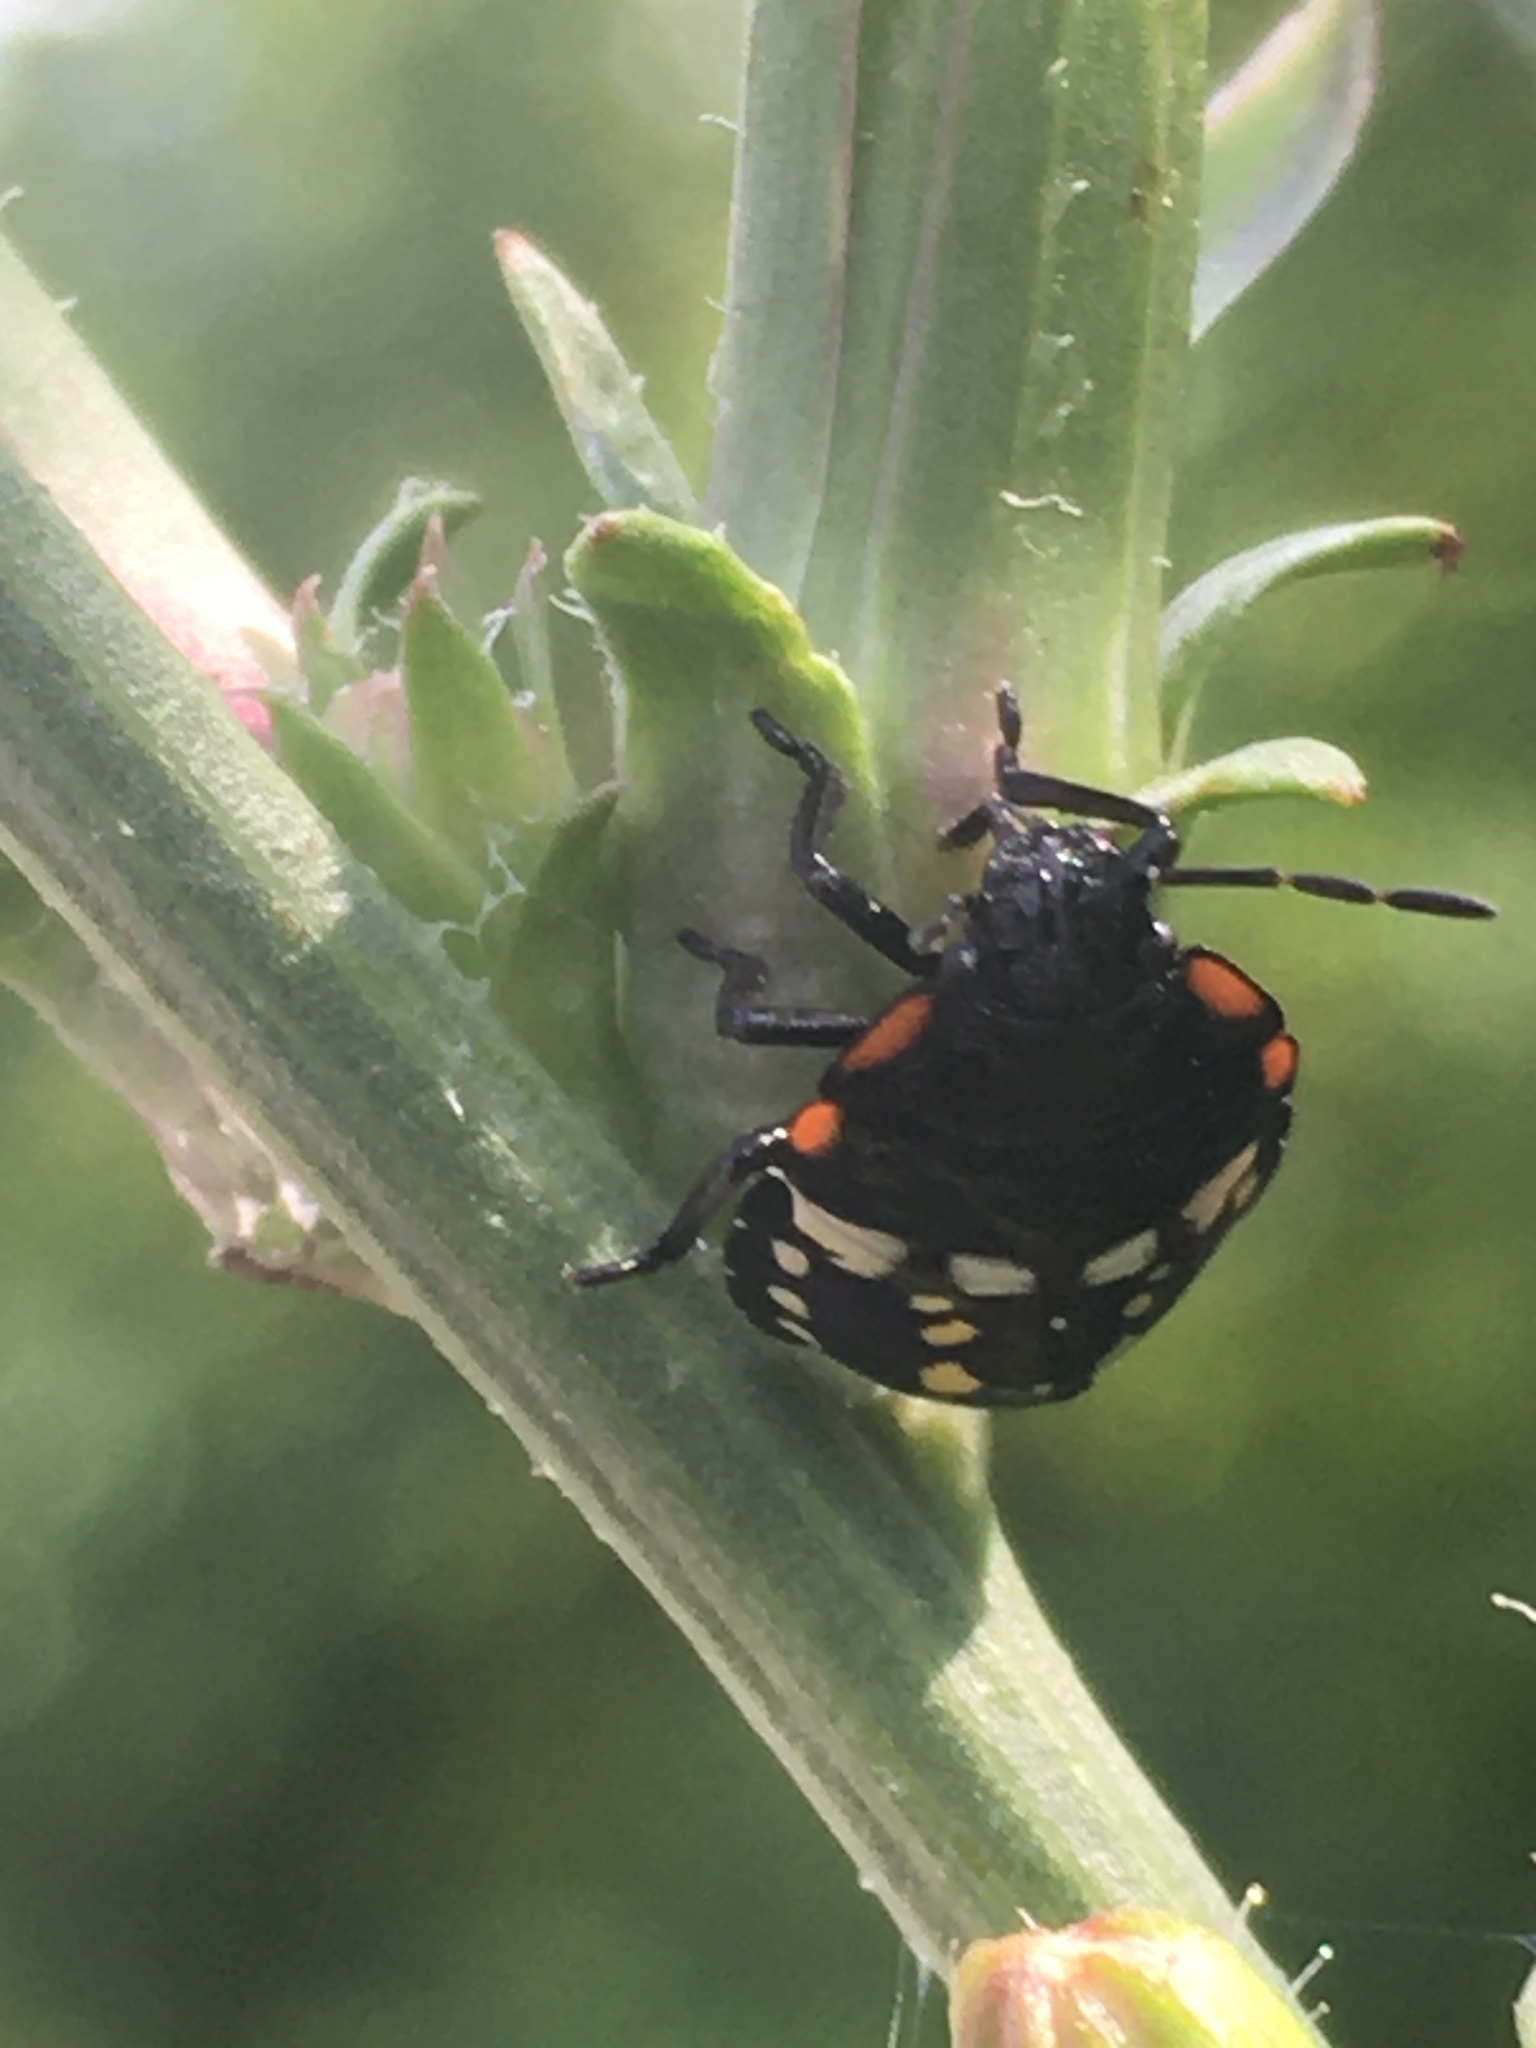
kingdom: Animalia
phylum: Arthropoda
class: Insecta
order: Hemiptera
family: Pentatomidae
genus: Nezara
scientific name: Nezara viridula
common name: Southern green stink bug
